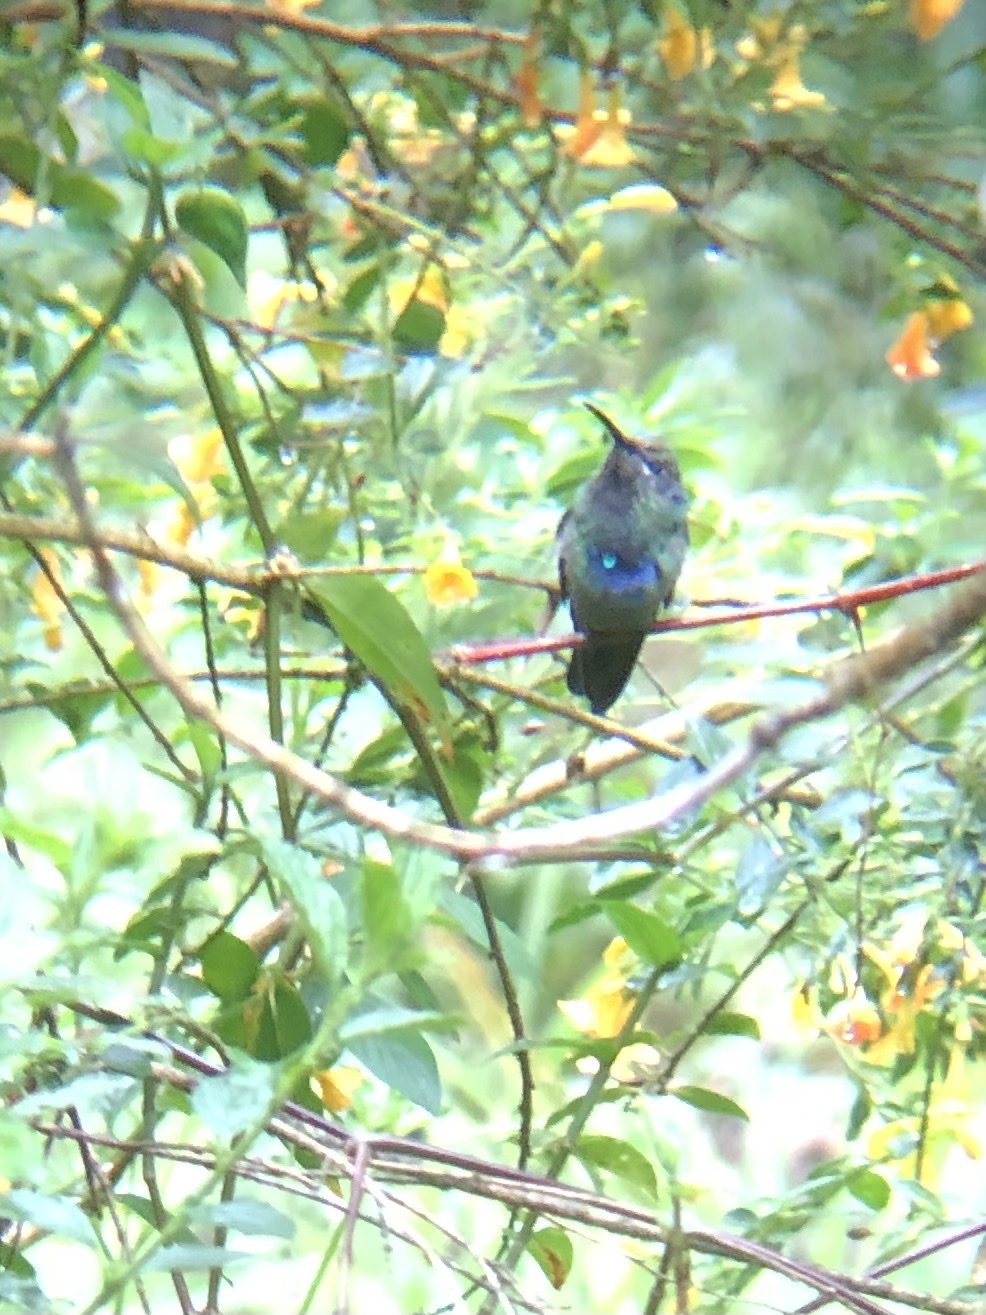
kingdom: Animalia
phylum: Chordata
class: Aves
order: Apodiformes
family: Trochilidae
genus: Colibri
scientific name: Colibri coruscans
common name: Sparkling violetear
